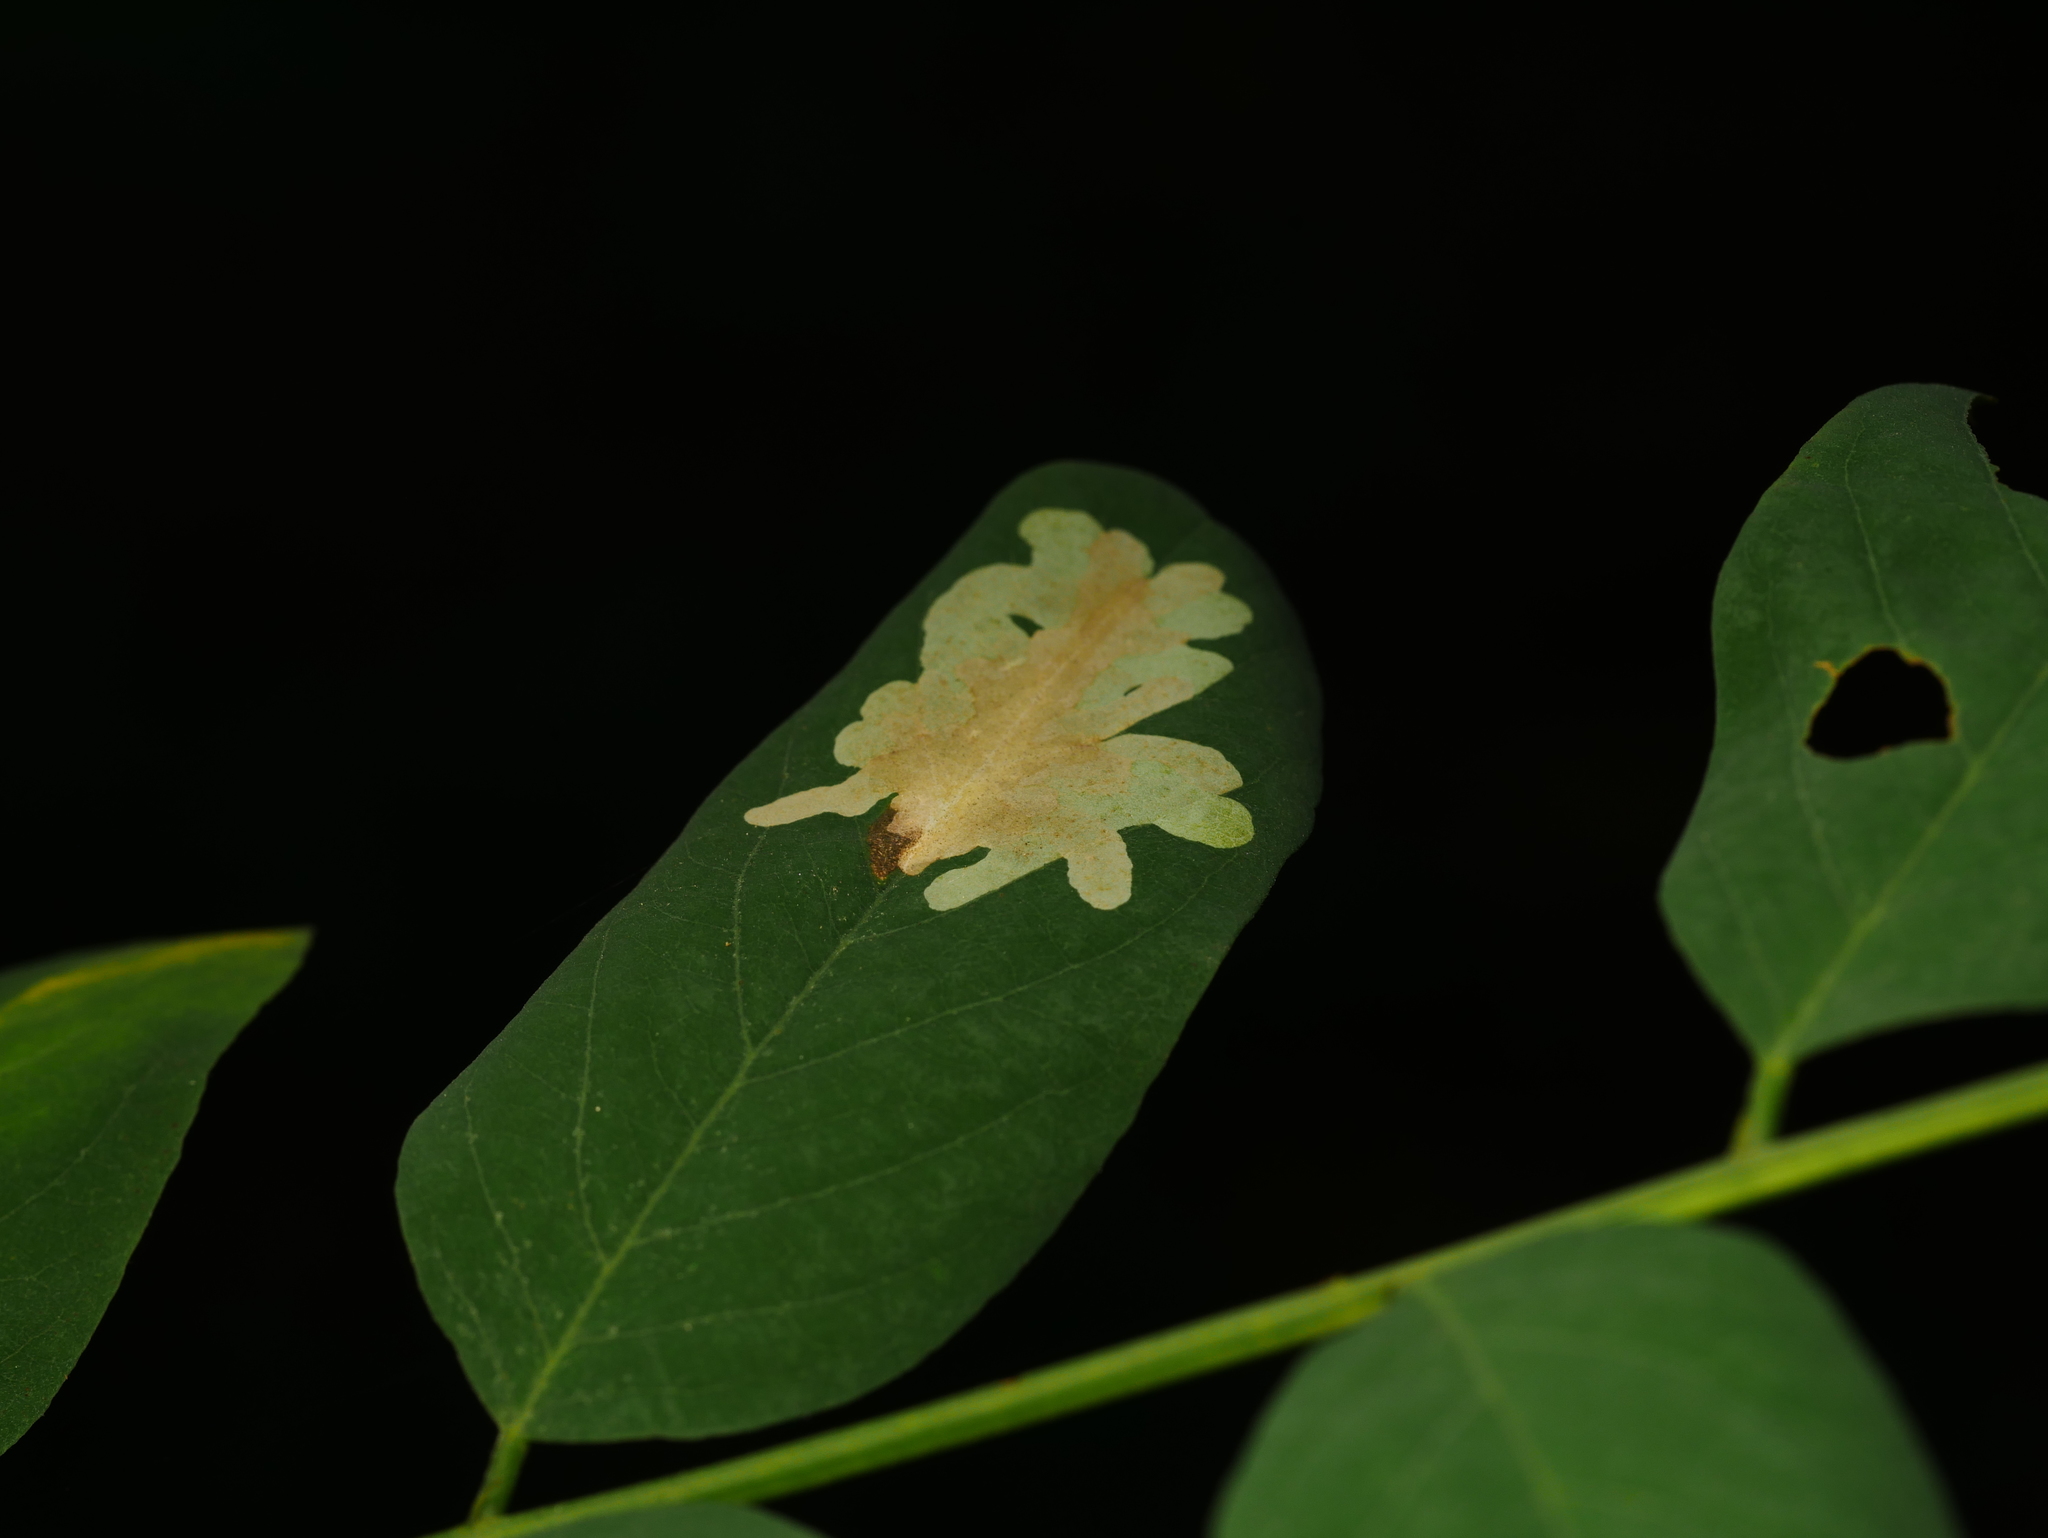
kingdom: Animalia
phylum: Arthropoda
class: Insecta
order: Lepidoptera
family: Gracillariidae
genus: Parectopa
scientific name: Parectopa robiniella
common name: Locust digitate leafminer
